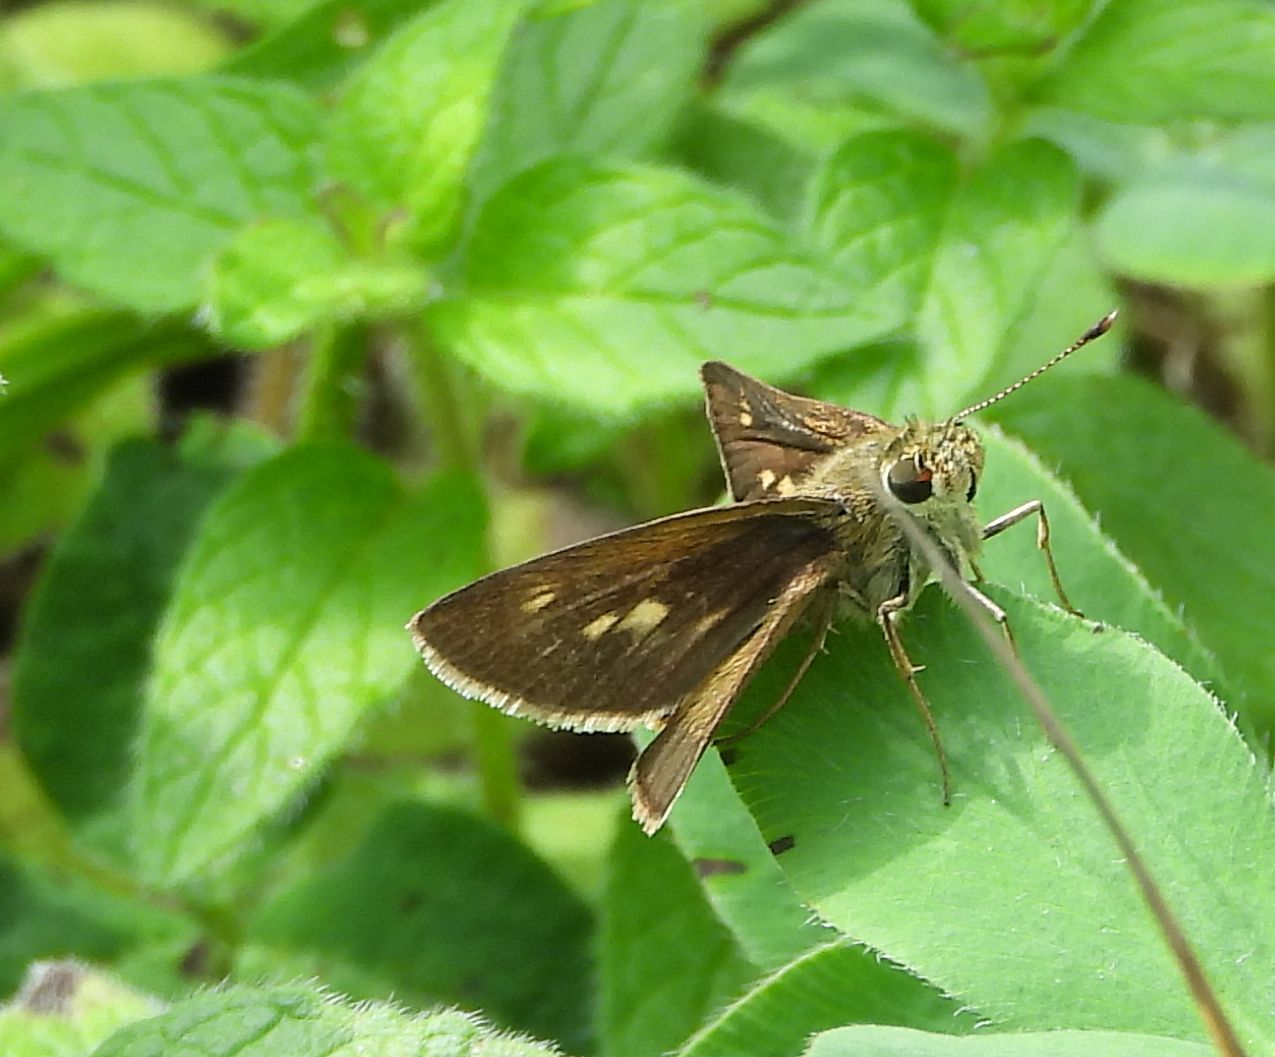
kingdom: Animalia
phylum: Arthropoda
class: Insecta
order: Lepidoptera
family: Hesperiidae
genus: Polites
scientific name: Polites egeremet
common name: Northern broken-dash
